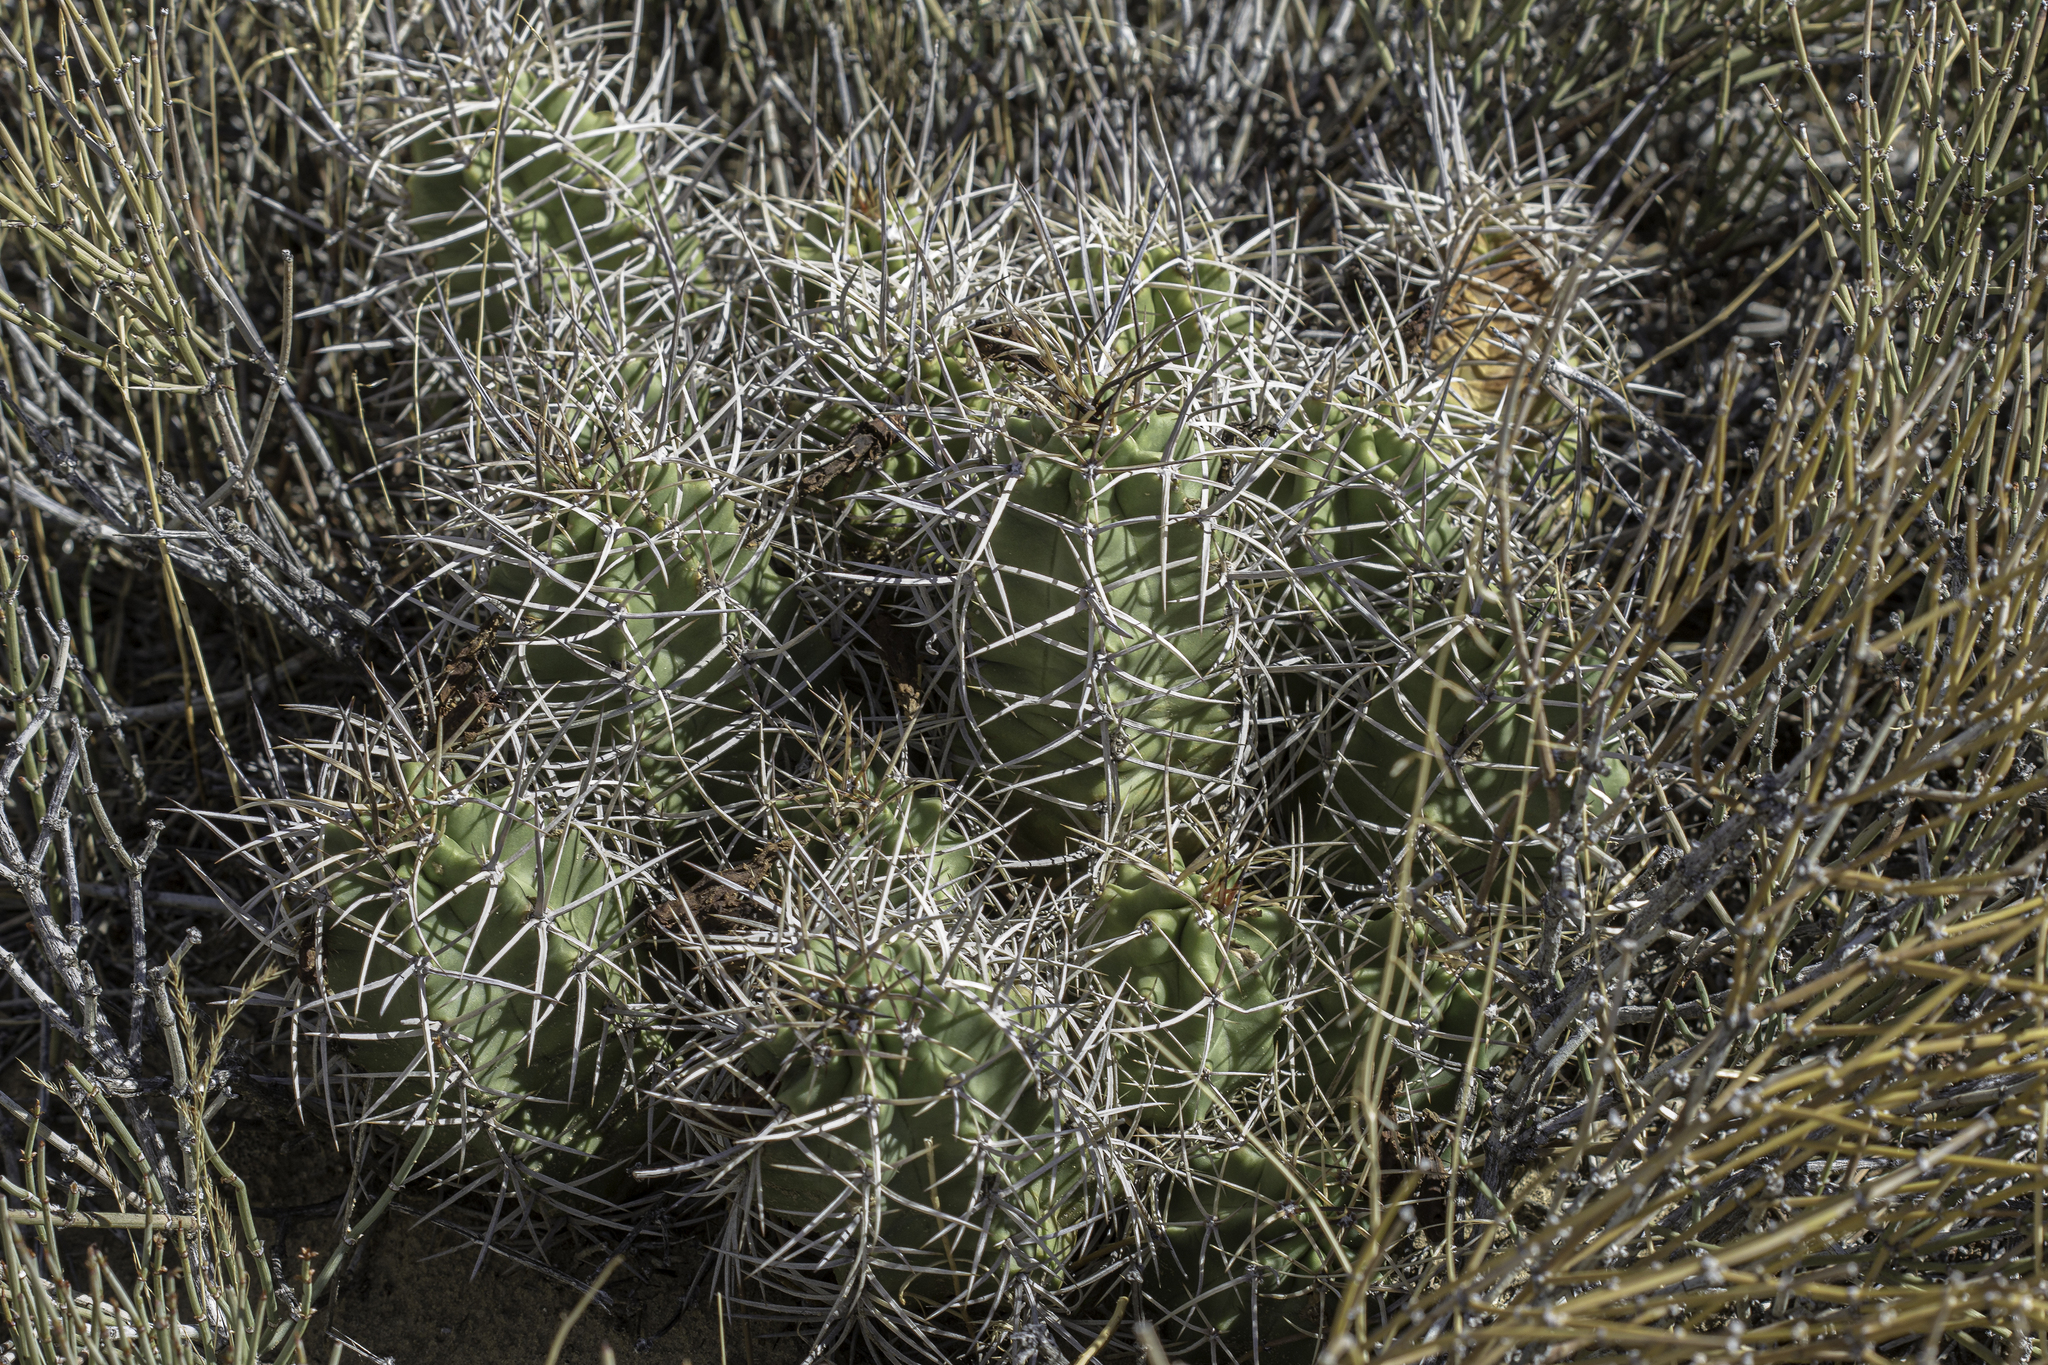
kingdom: Plantae
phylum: Tracheophyta
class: Magnoliopsida
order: Caryophyllales
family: Cactaceae
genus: Echinocereus
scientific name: Echinocereus triglochidiatus
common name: Claretcup hedgehog
